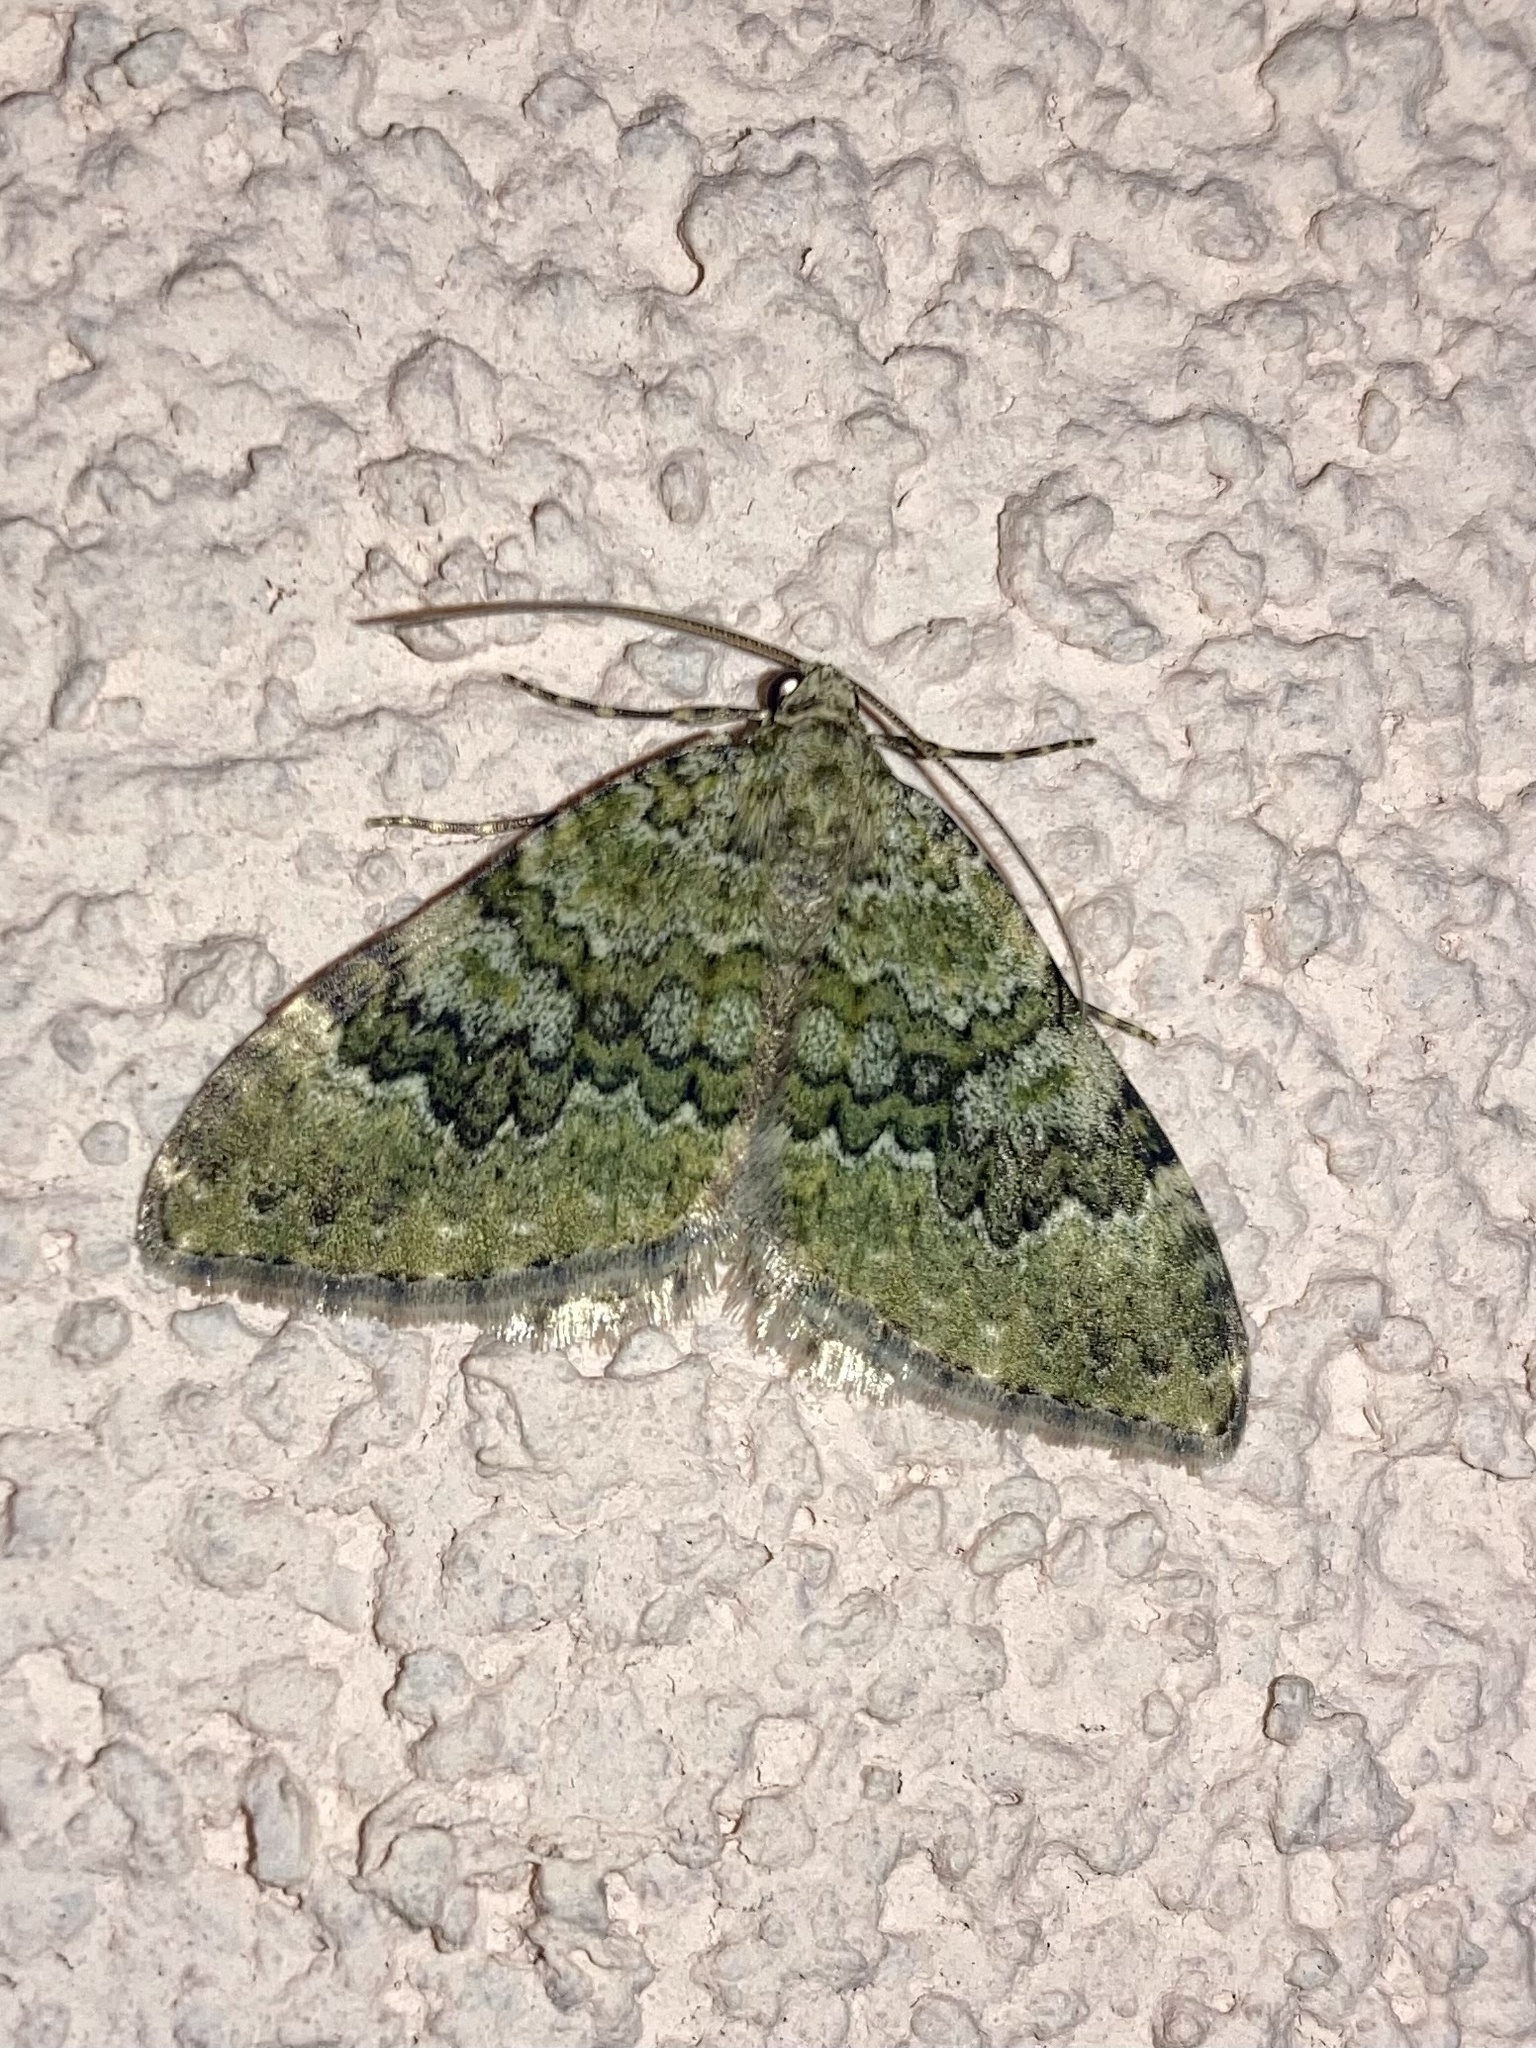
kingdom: Animalia
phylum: Arthropoda
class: Insecta
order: Lepidoptera
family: Geometridae
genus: Euphyia
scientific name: Euphyia frustata
